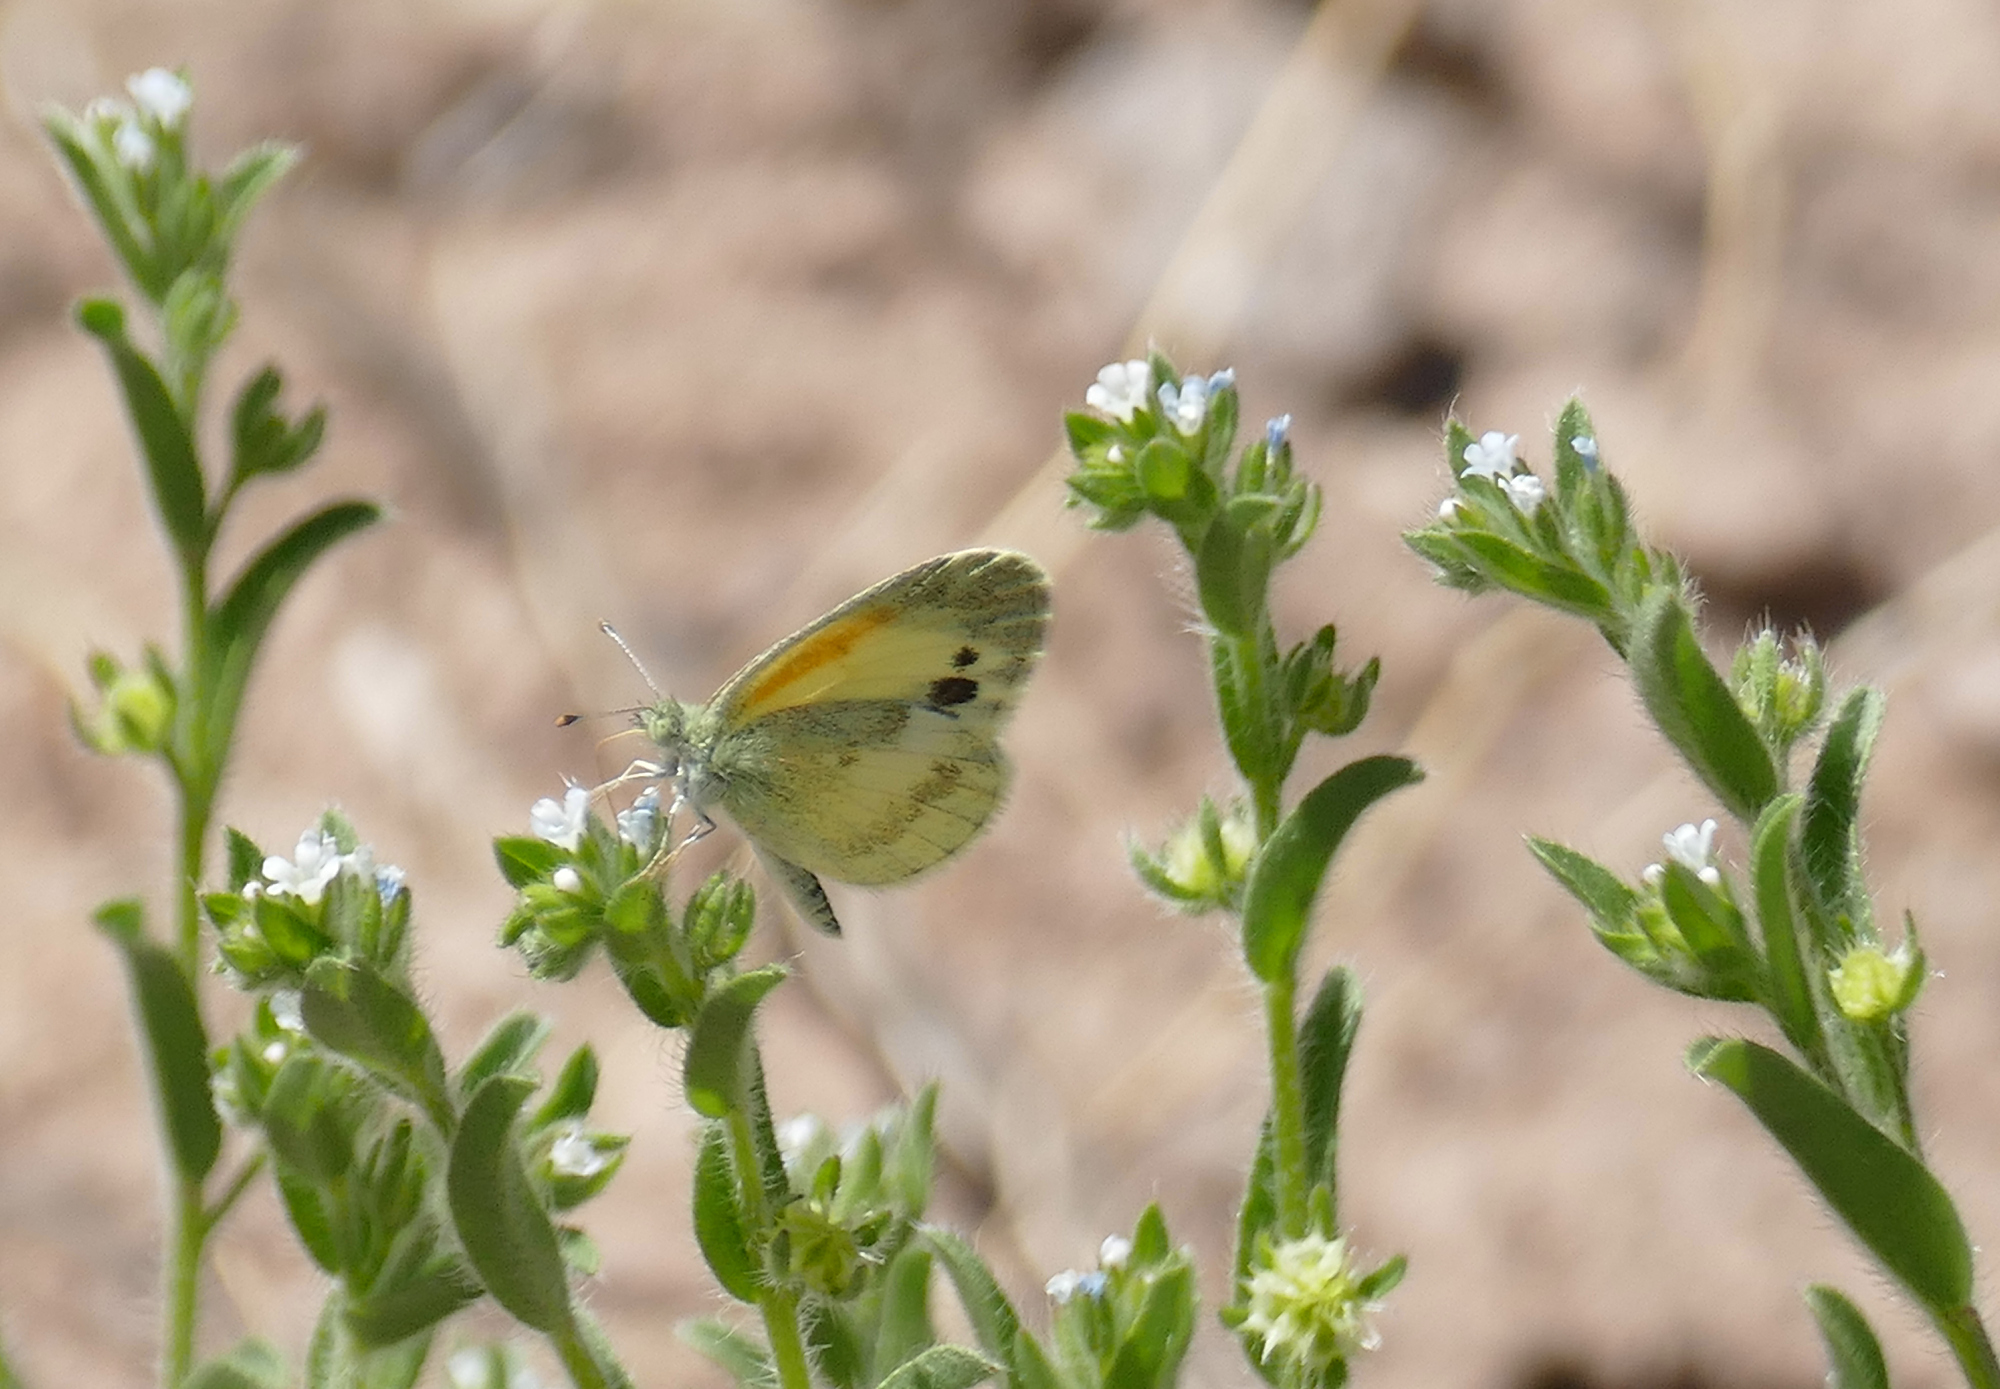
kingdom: Animalia
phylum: Arthropoda
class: Insecta
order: Lepidoptera
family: Pieridae
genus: Nathalis
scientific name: Nathalis iole
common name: Dainty sulphur
